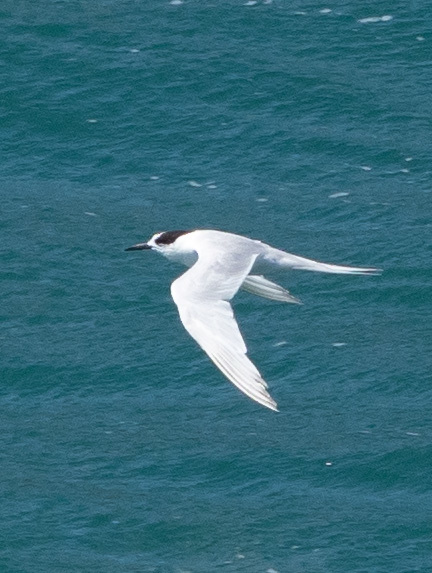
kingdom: Animalia
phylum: Chordata
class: Aves
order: Charadriiformes
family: Laridae
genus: Sterna
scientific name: Sterna striata
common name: White-fronted tern
